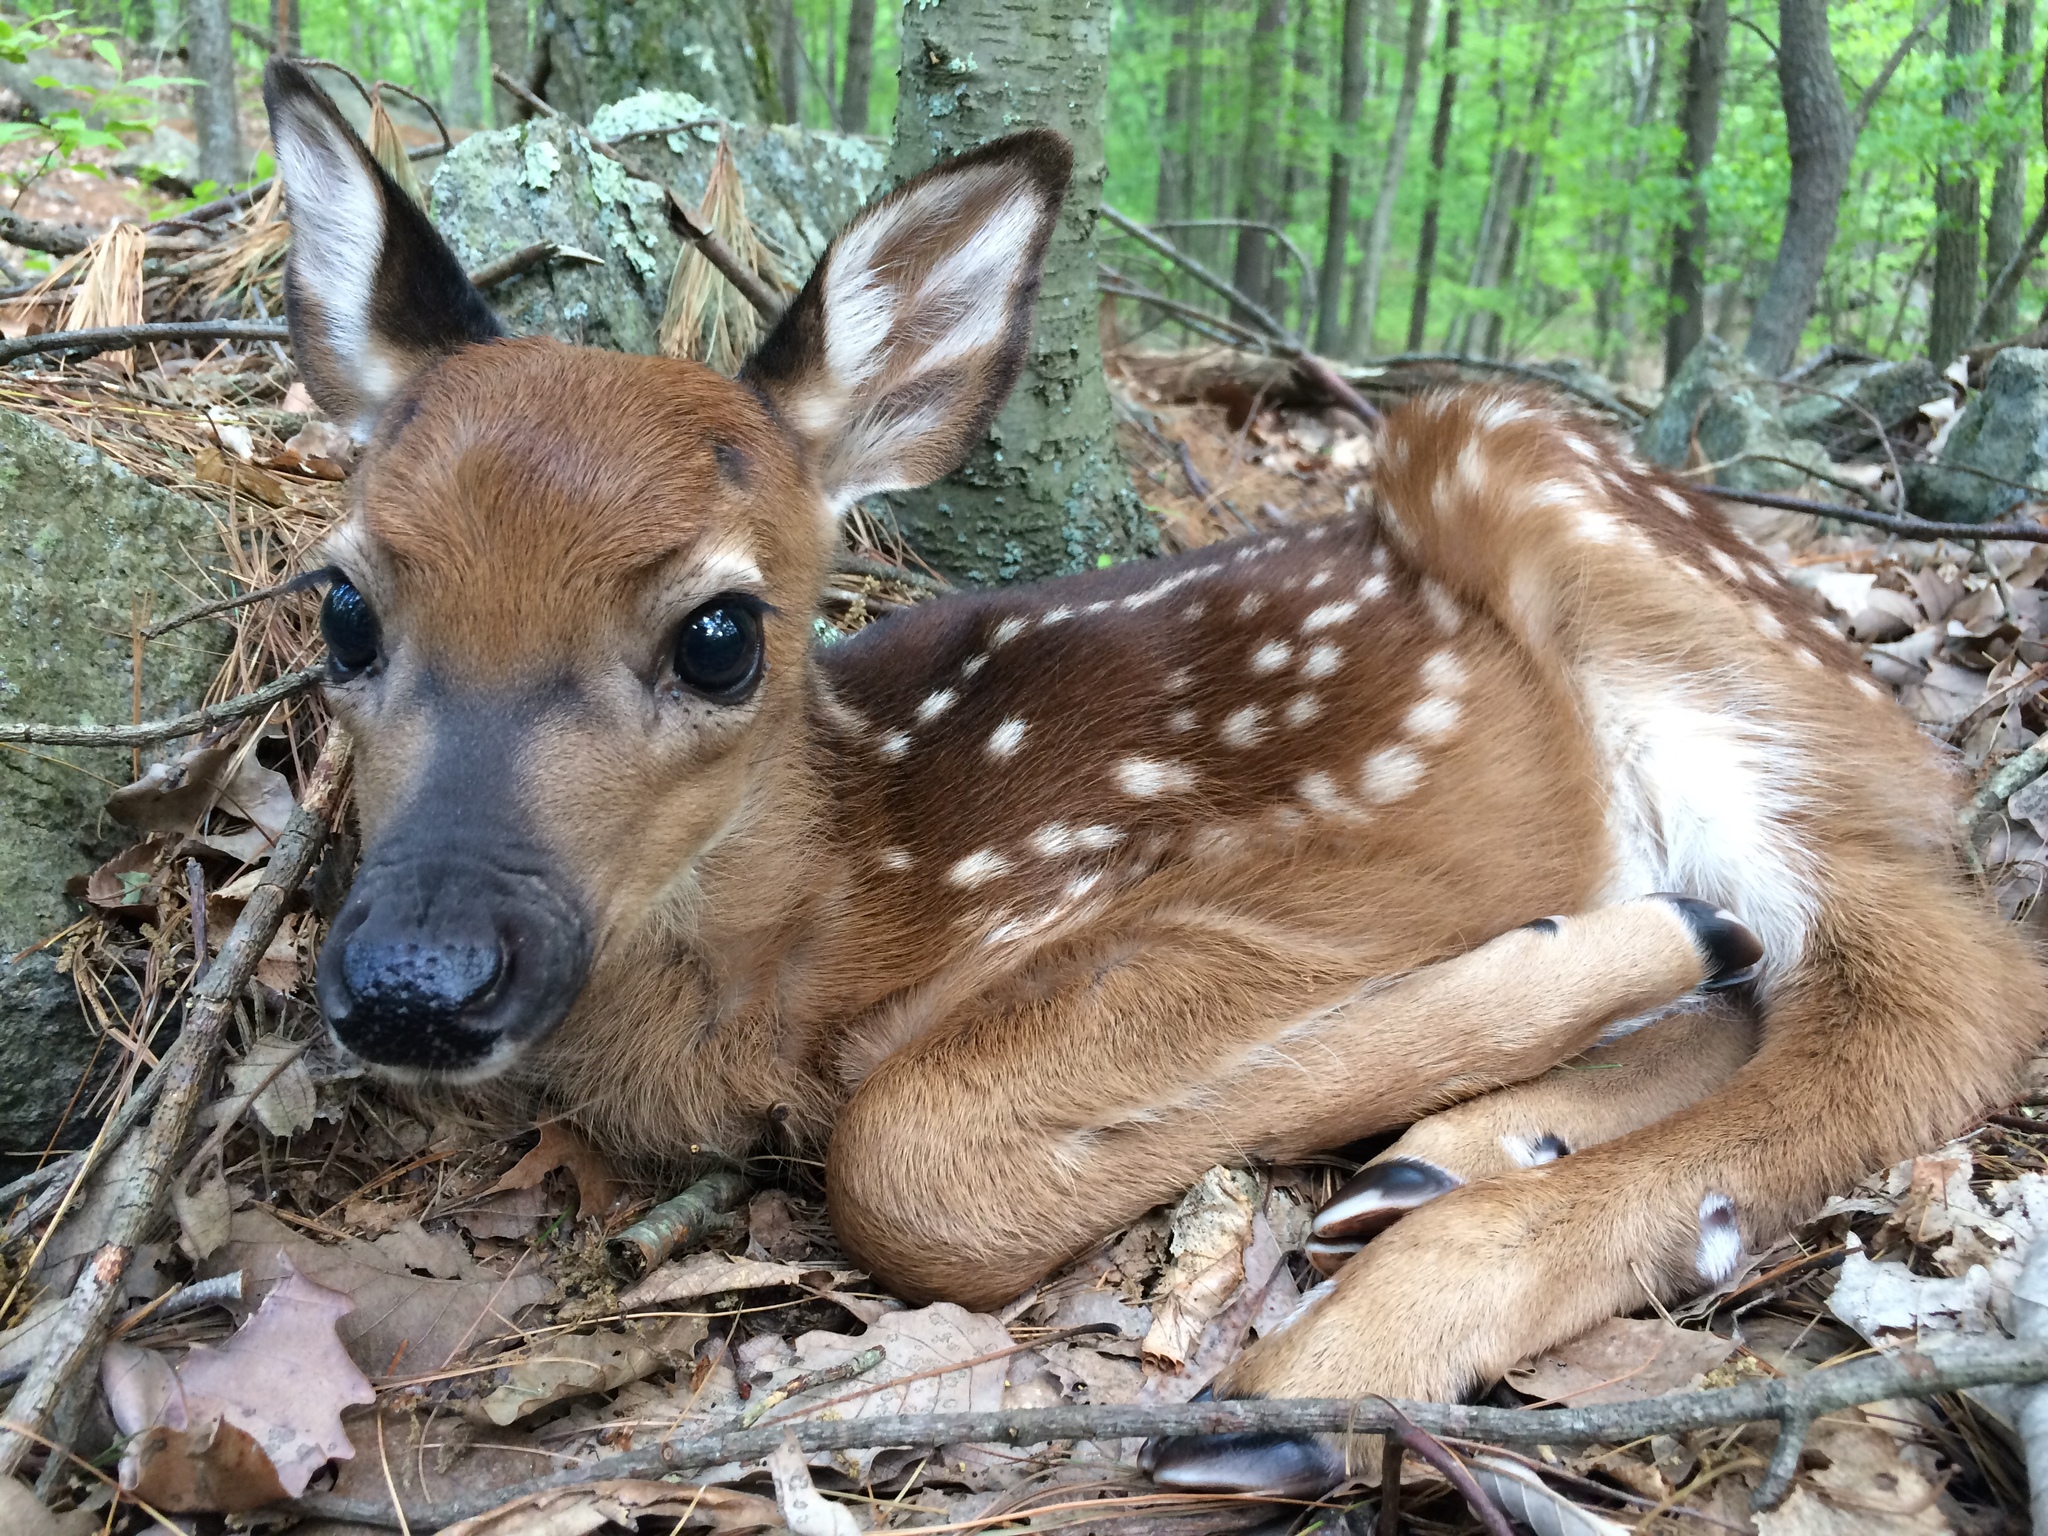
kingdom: Animalia
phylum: Chordata
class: Mammalia
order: Artiodactyla
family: Cervidae
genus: Odocoileus
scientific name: Odocoileus virginianus
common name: White-tailed deer
